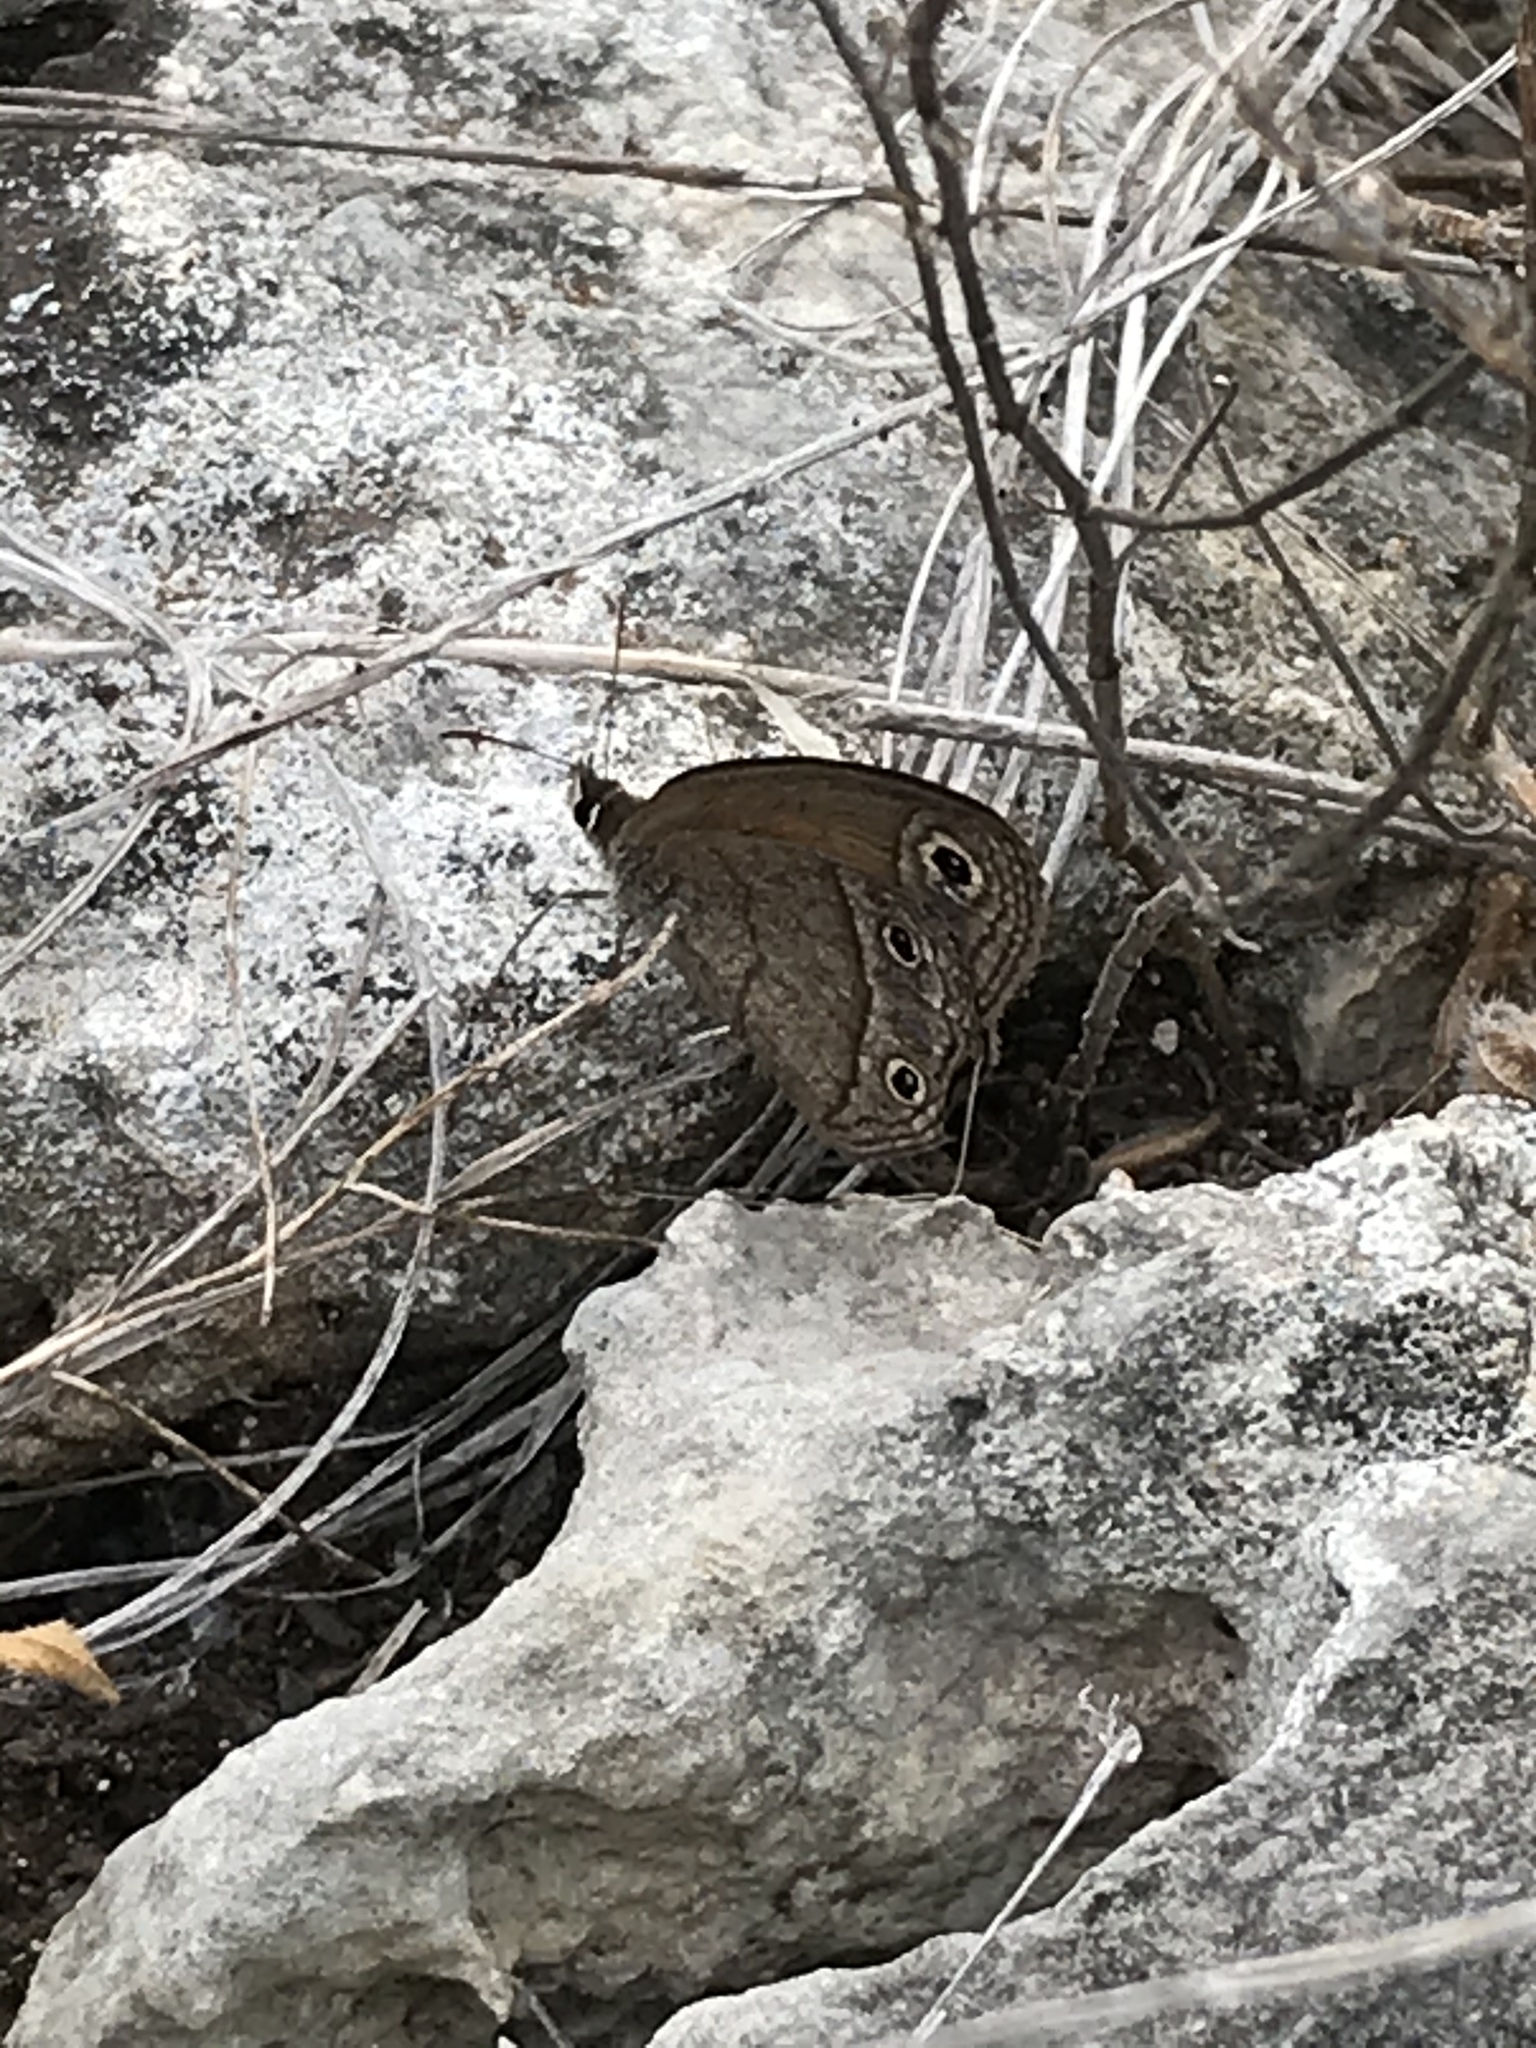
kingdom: Animalia
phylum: Arthropoda
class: Insecta
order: Lepidoptera
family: Nymphalidae
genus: Euptychia
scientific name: Euptychia Cissia rubricata
